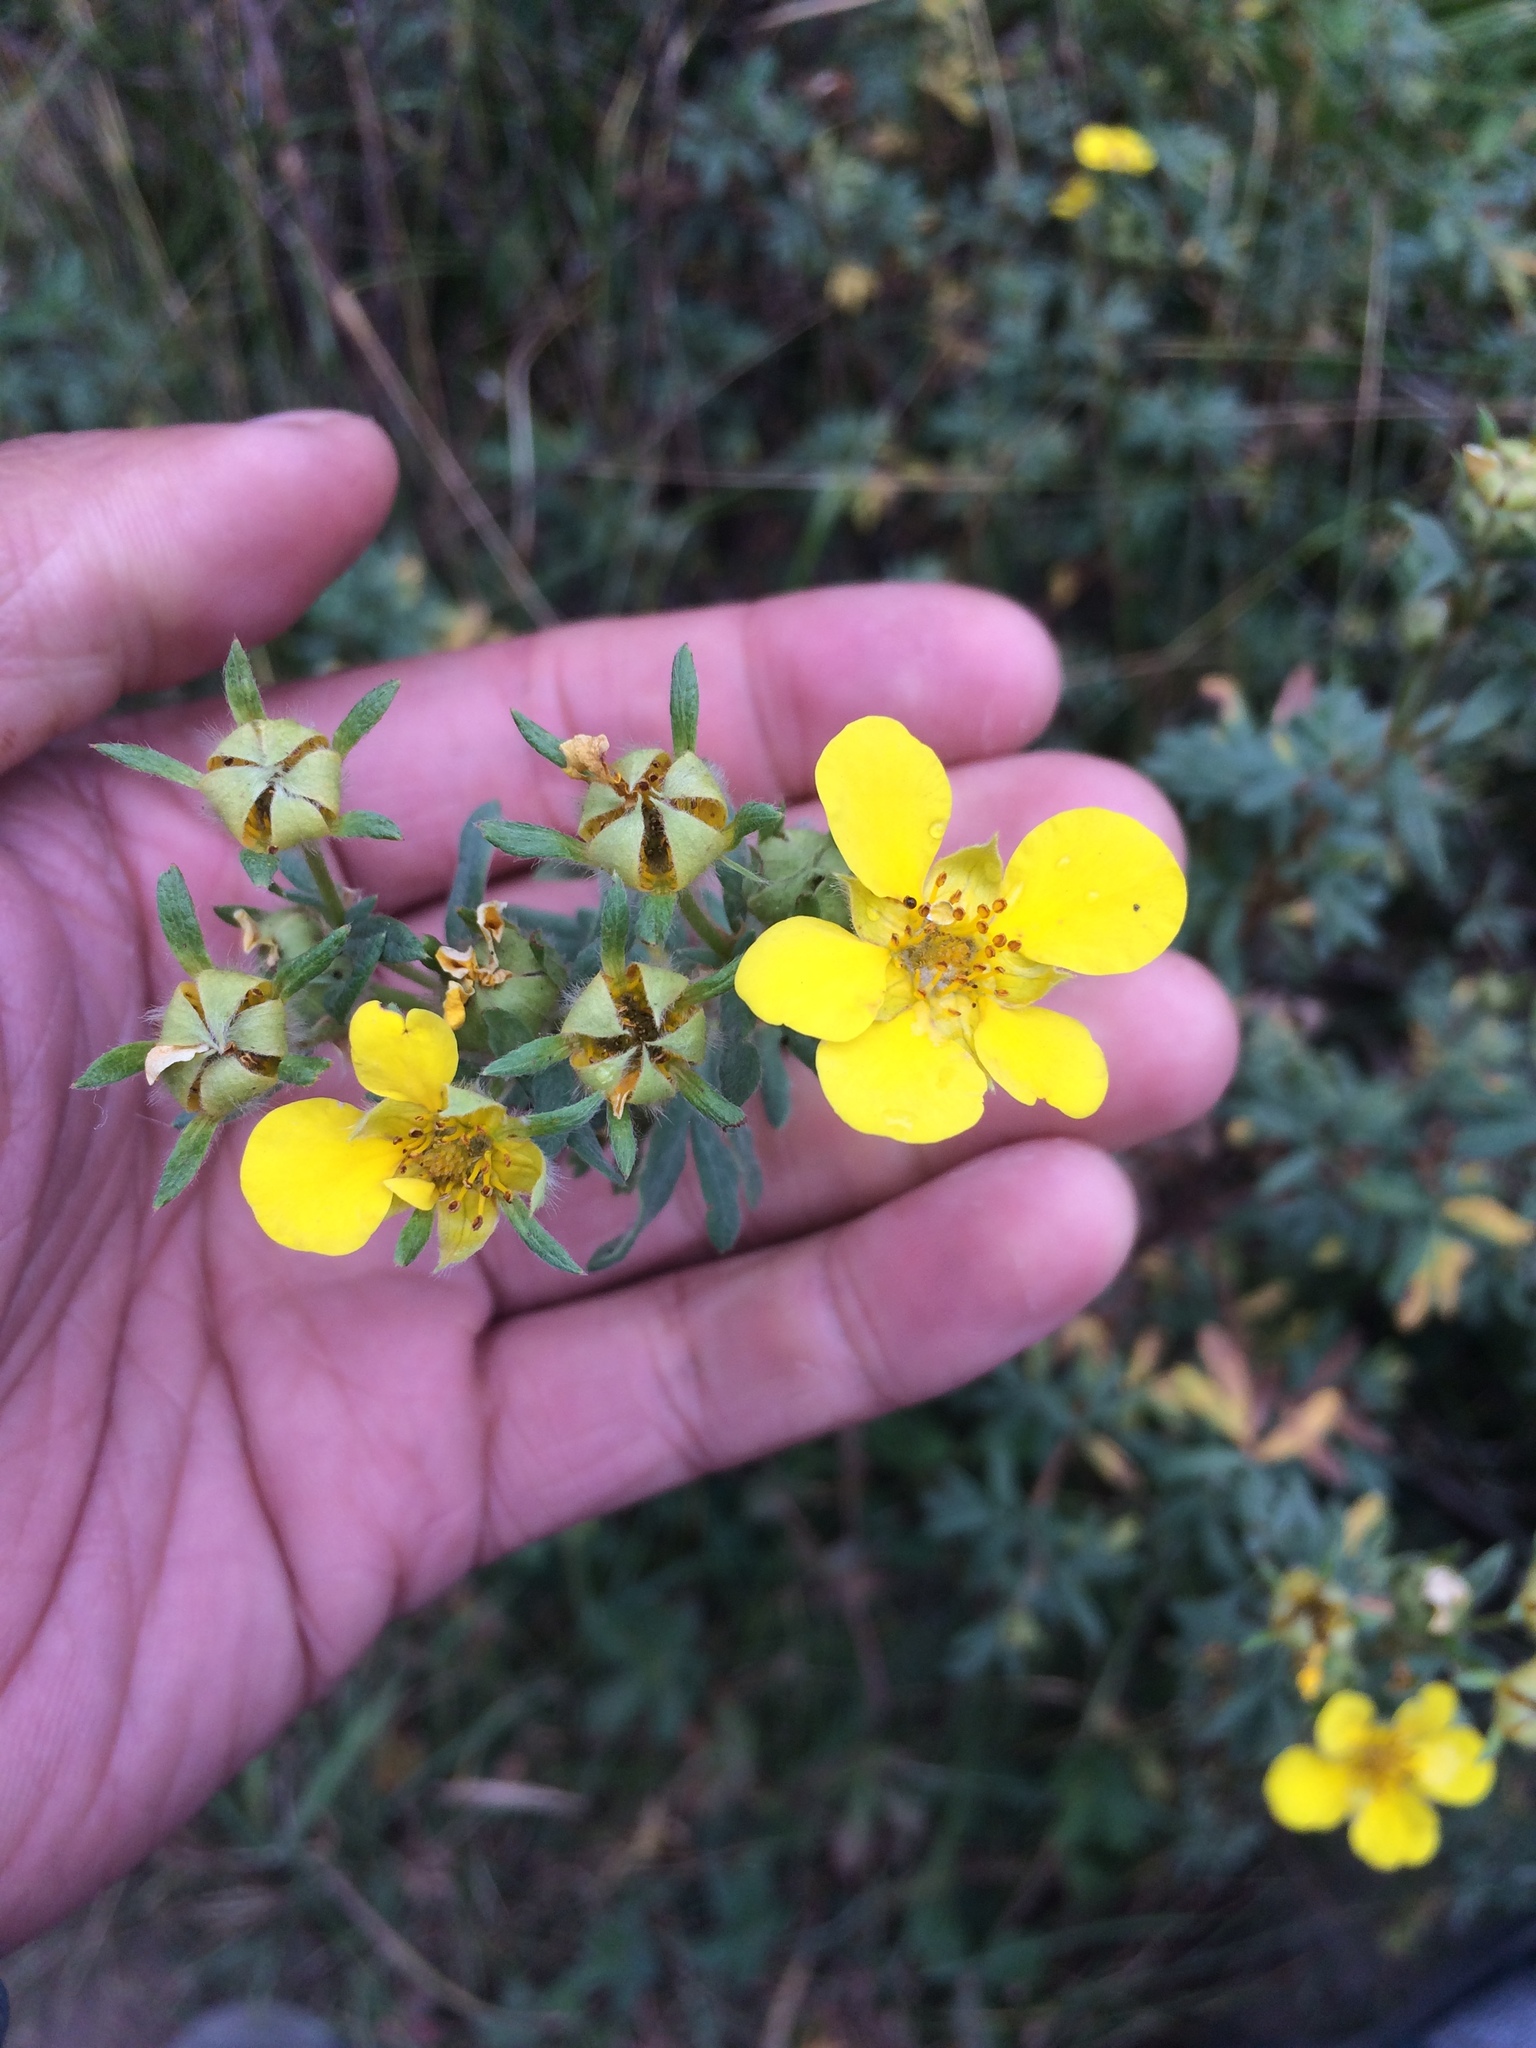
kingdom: Plantae
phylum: Tracheophyta
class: Magnoliopsida
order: Rosales
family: Rosaceae
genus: Dasiphora
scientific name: Dasiphora fruticosa
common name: Shrubby cinquefoil
